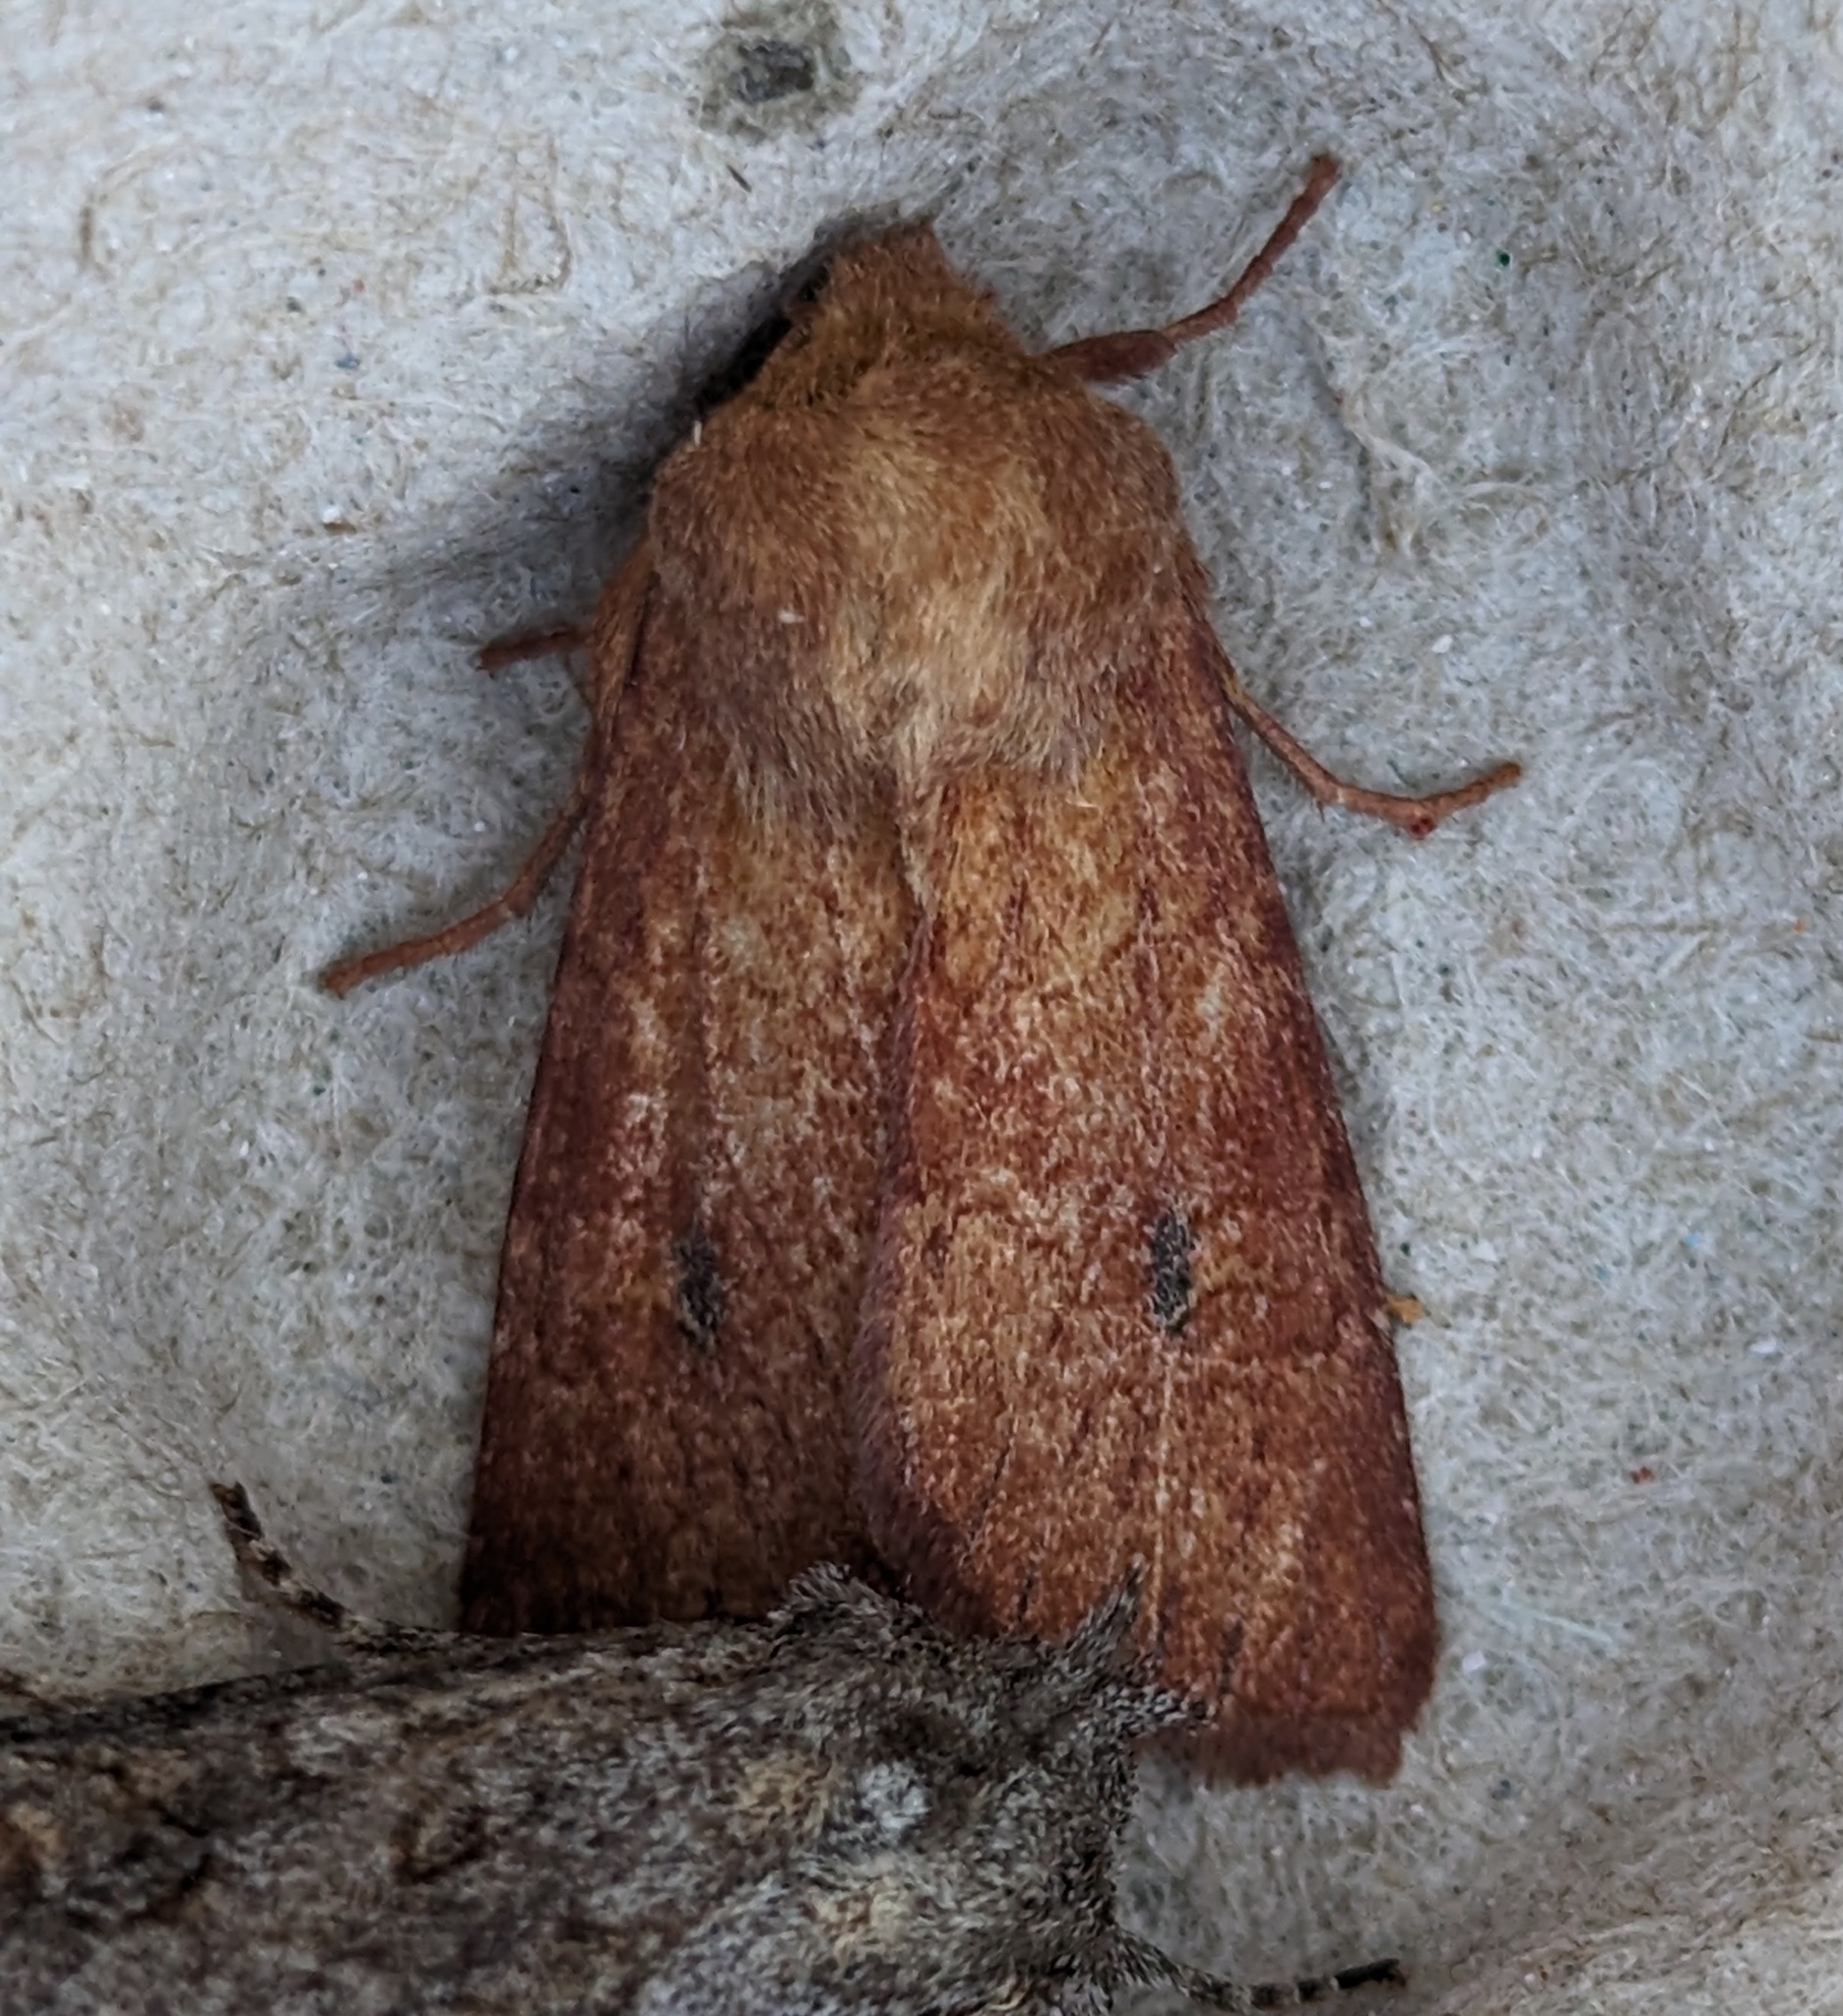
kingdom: Animalia
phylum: Arthropoda
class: Insecta
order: Lepidoptera
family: Noctuidae
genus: Apamea
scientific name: Apamea inficita
